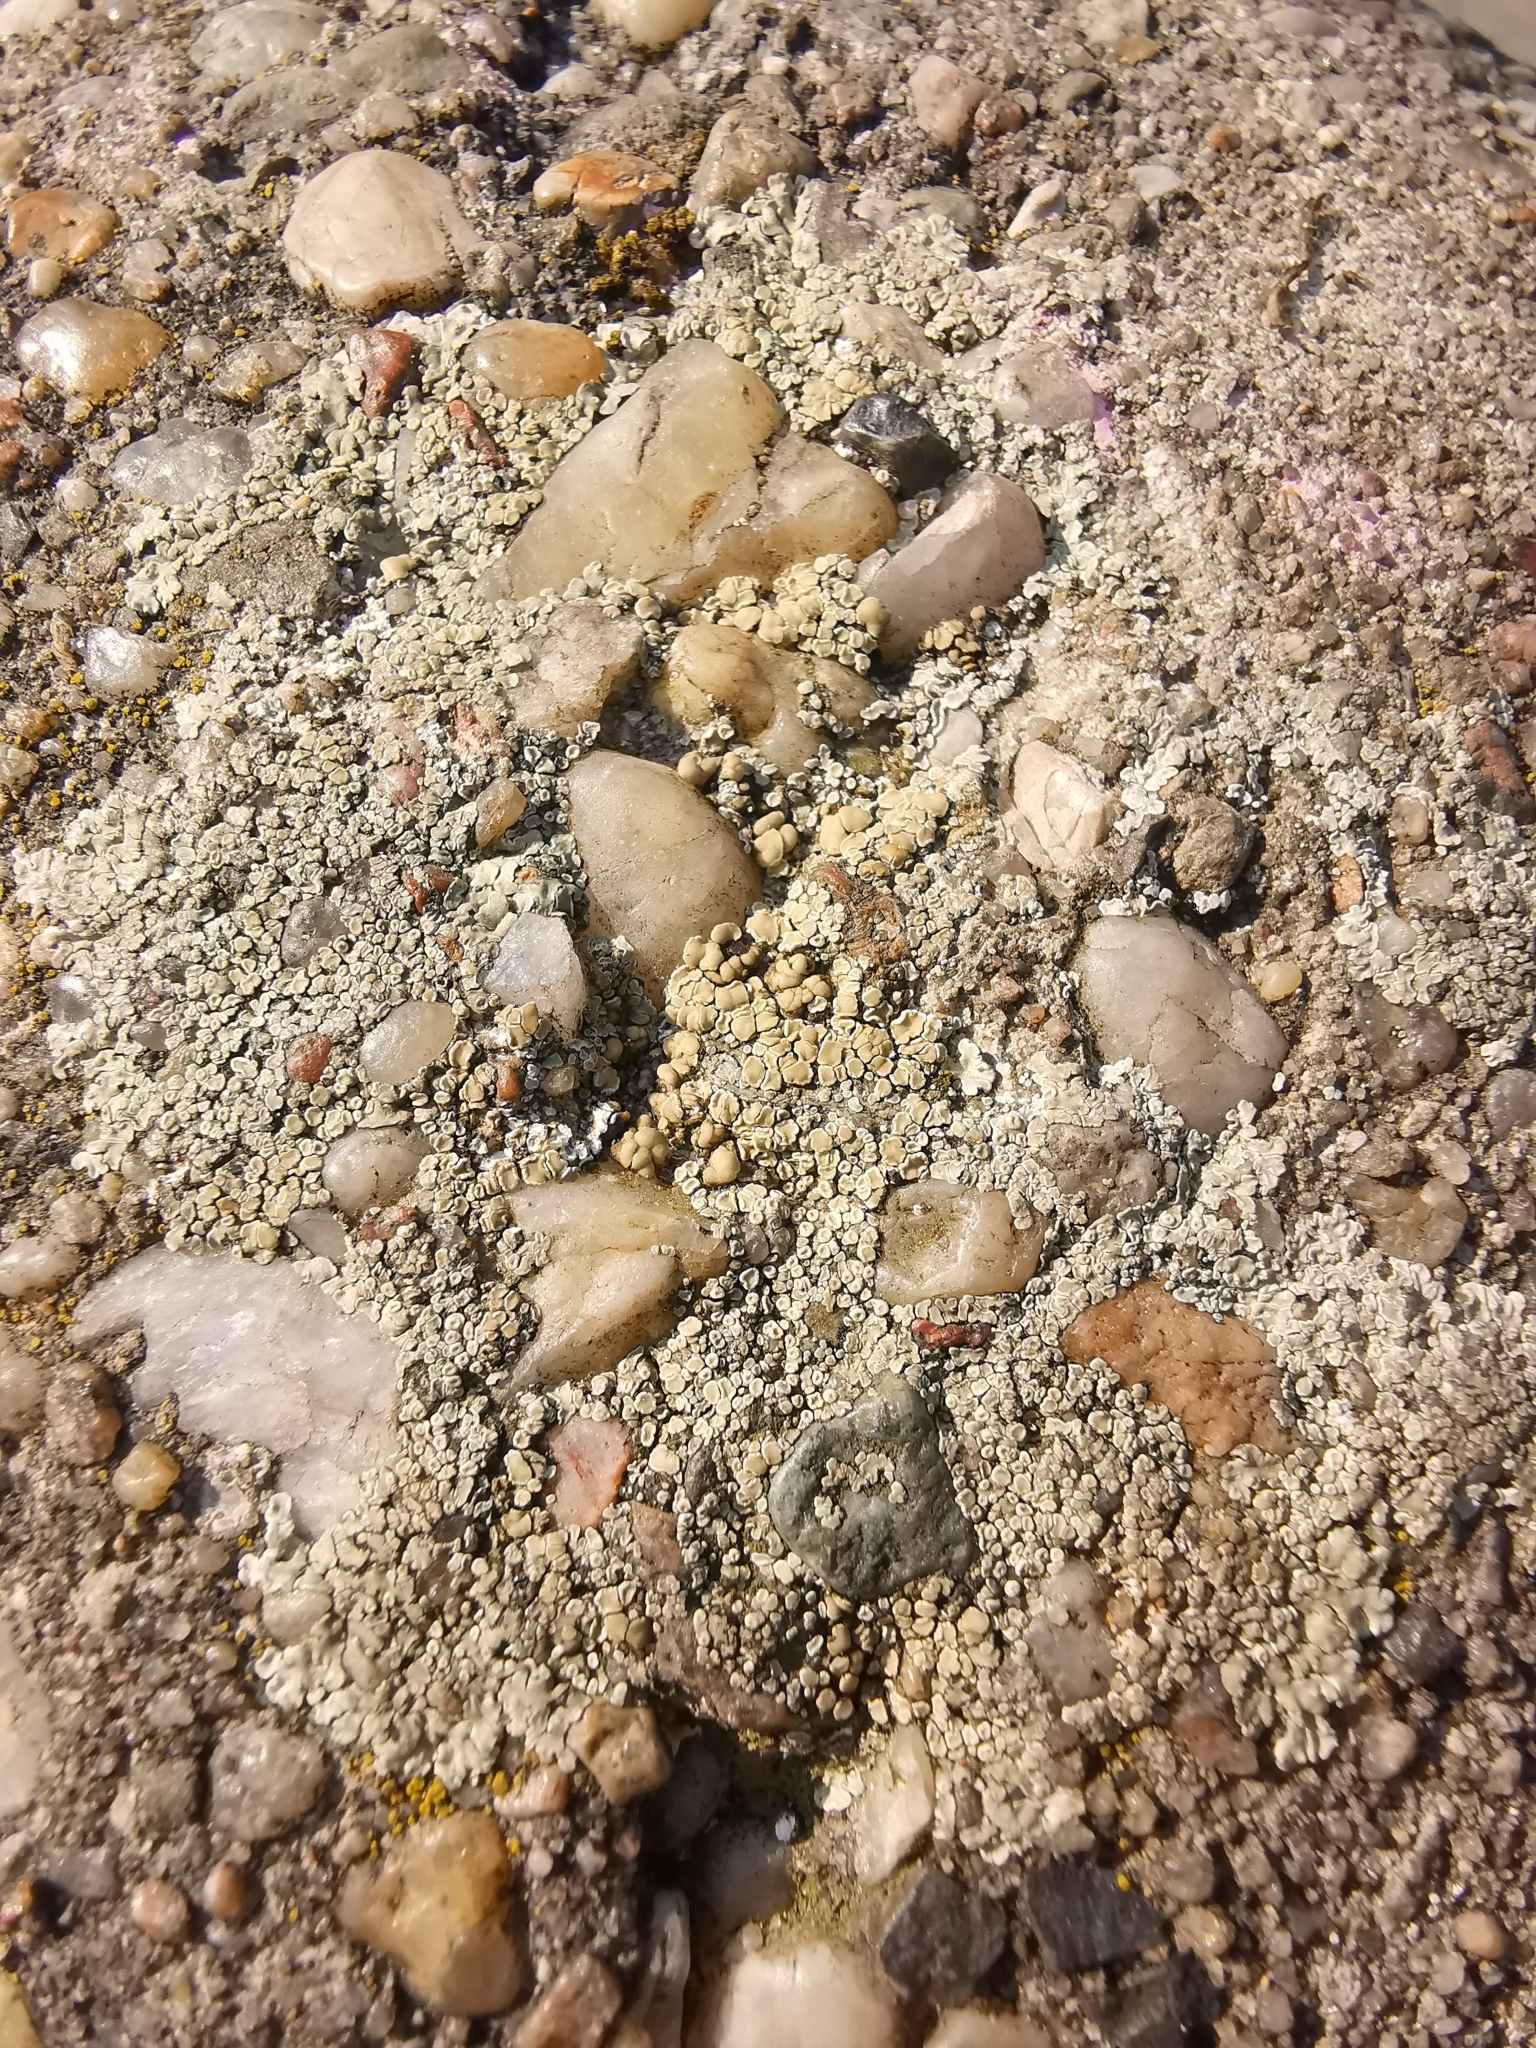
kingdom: Fungi
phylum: Ascomycota
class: Lecanoromycetes
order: Lecanorales
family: Lecanoraceae
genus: Protoparmeliopsis
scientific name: Protoparmeliopsis muralis
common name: Stonewall rim lichen
